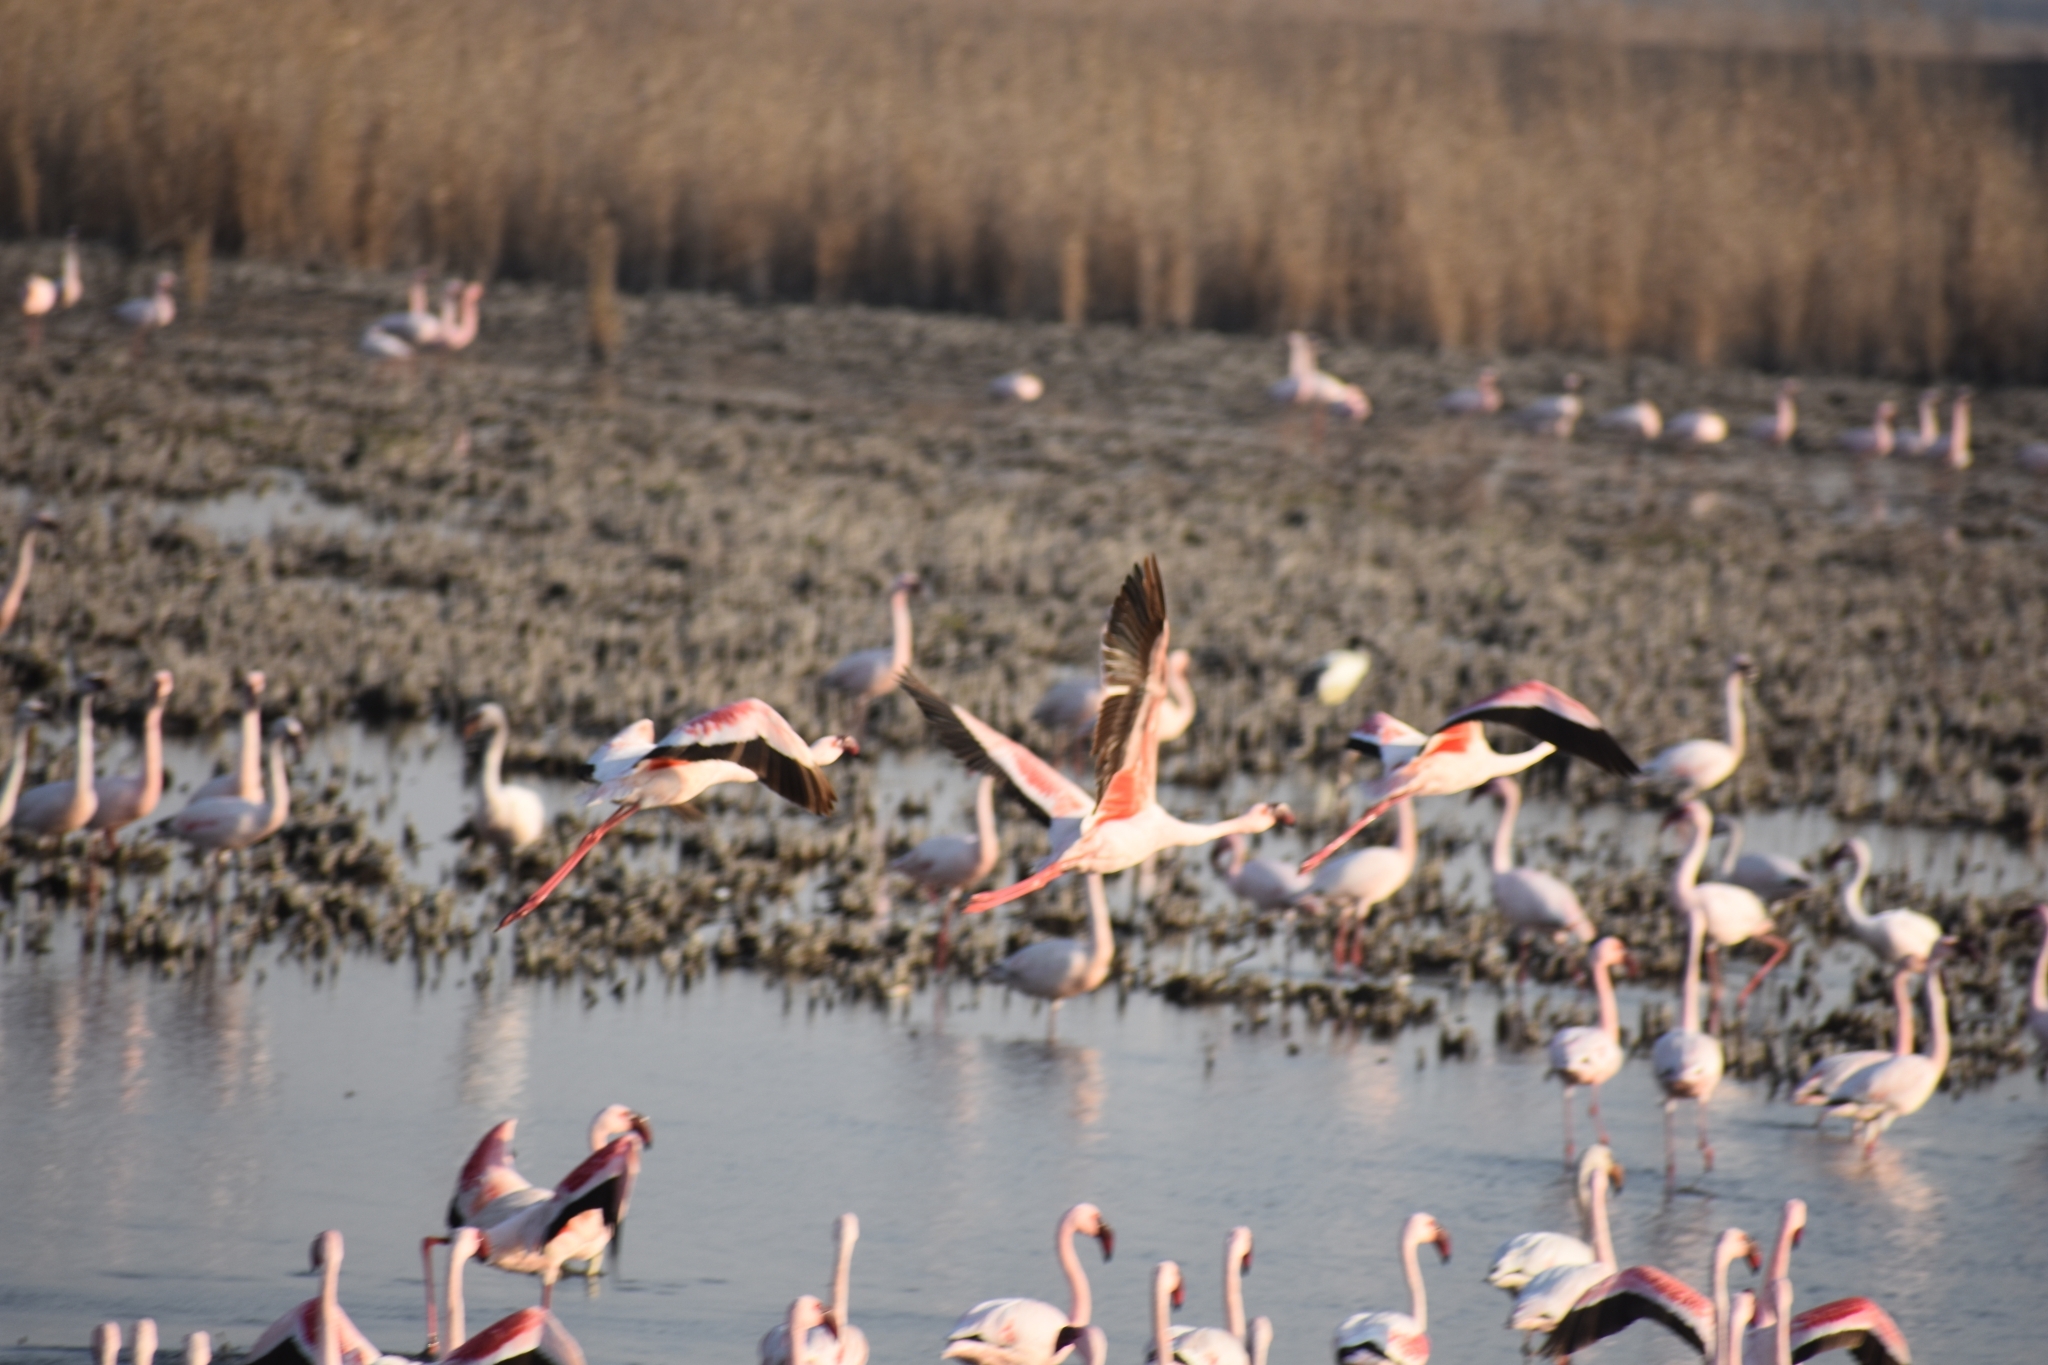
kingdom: Animalia
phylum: Chordata
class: Aves
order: Phoenicopteriformes
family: Phoenicopteridae
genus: Phoeniconaias
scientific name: Phoeniconaias minor
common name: Lesser flamingo
